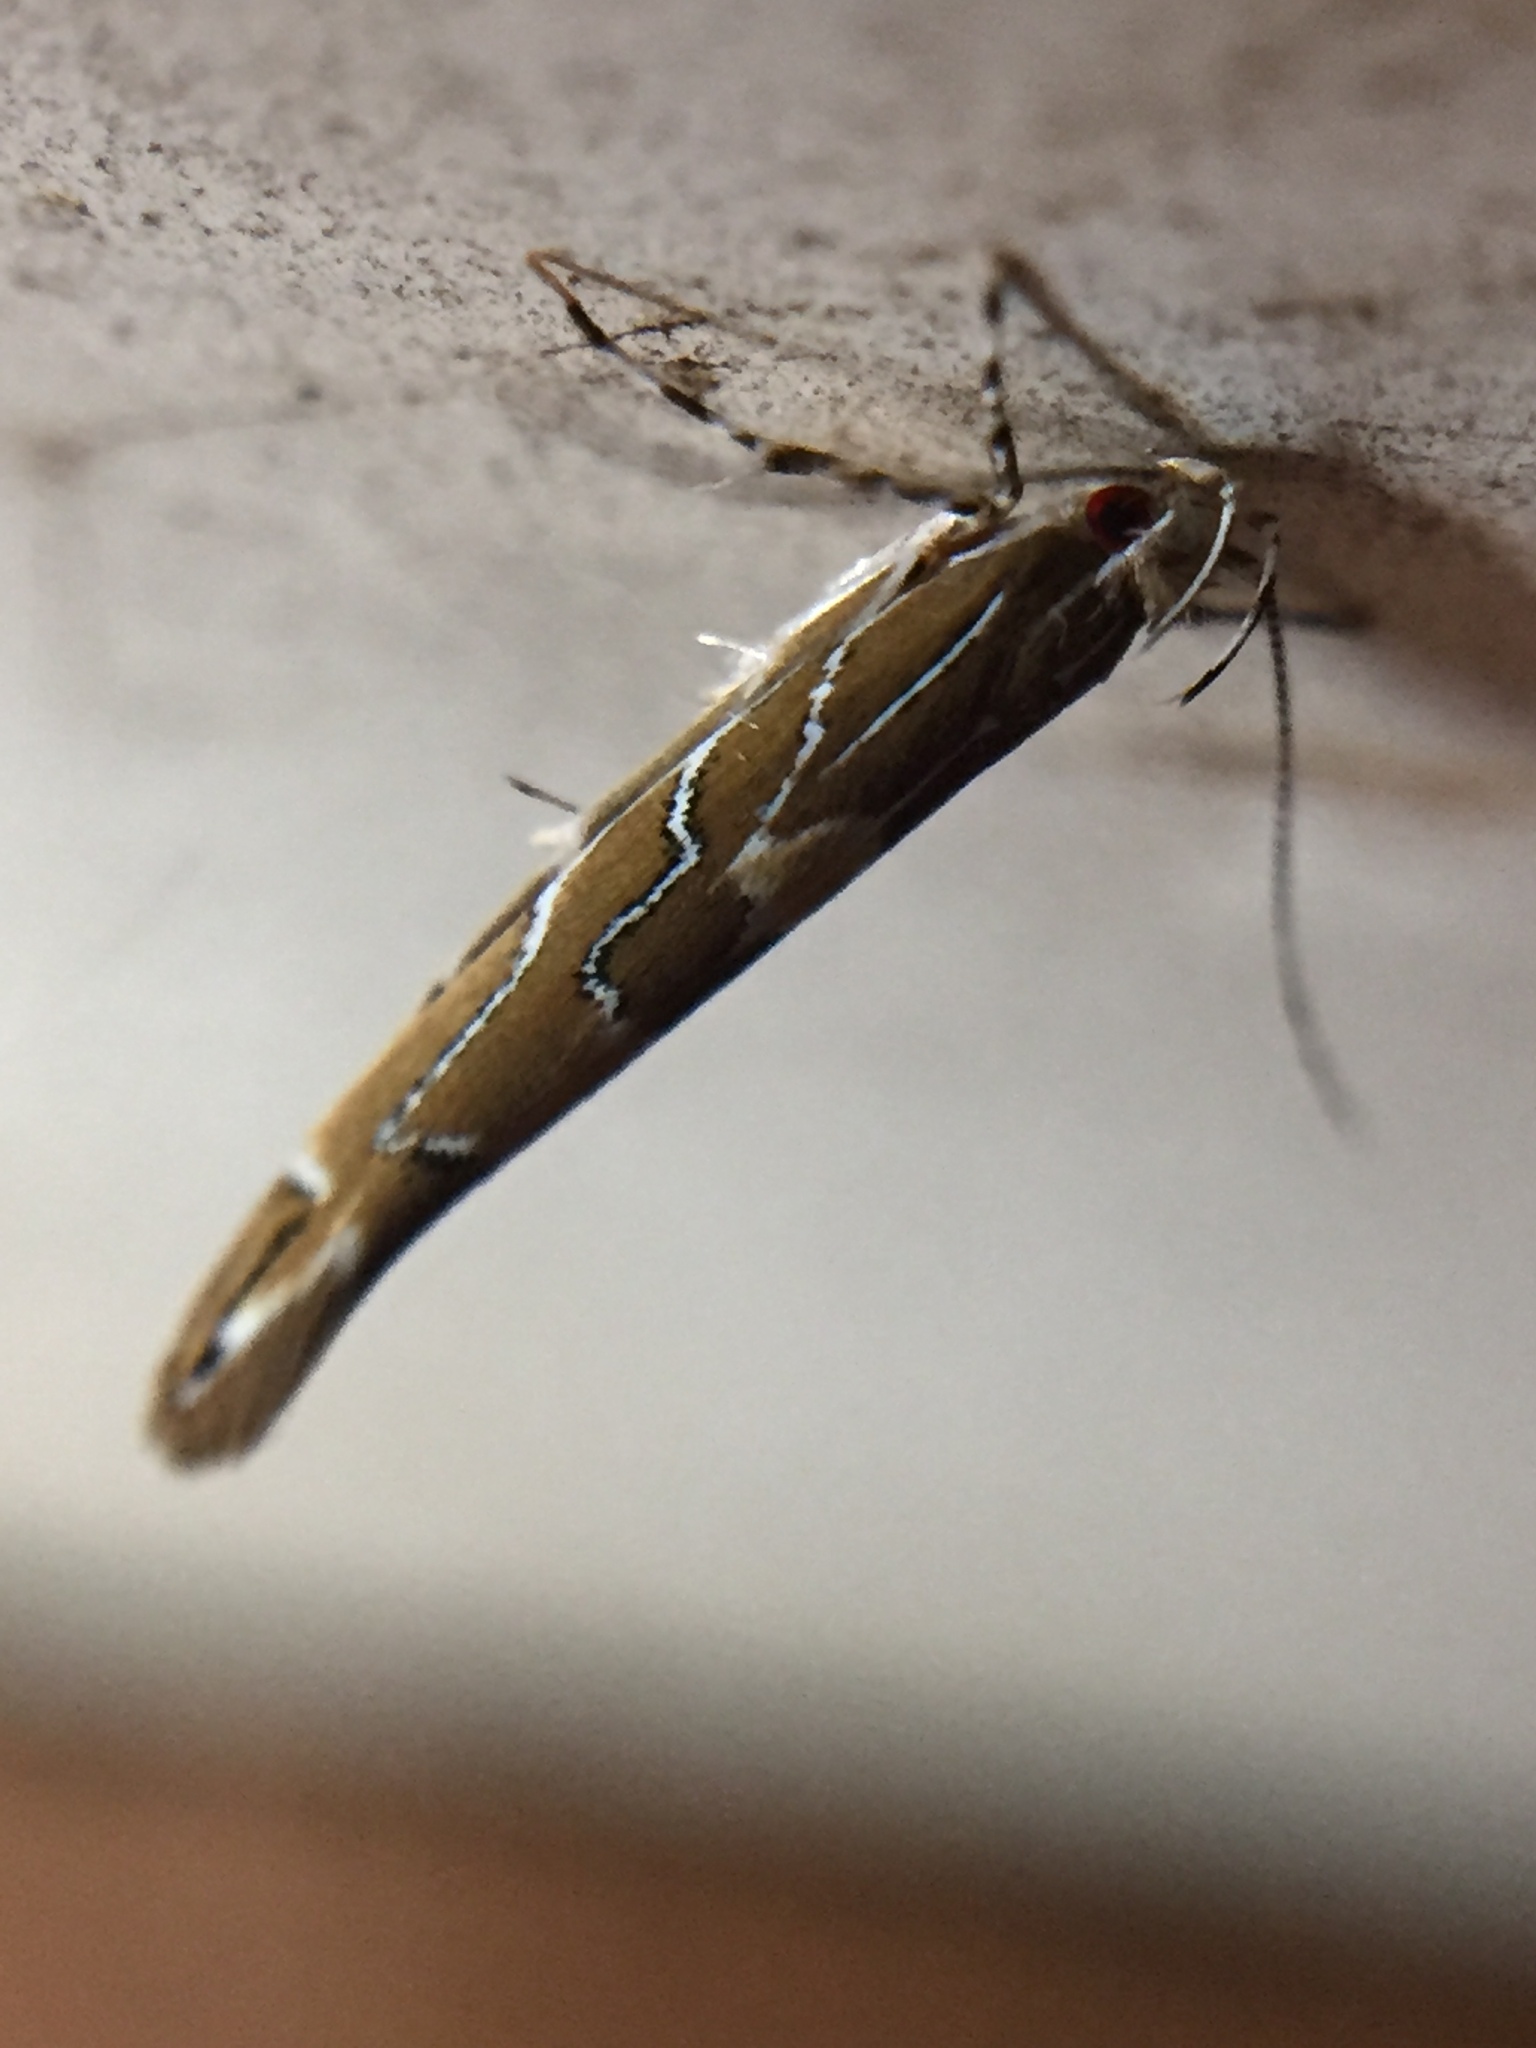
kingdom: Animalia
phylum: Arthropoda
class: Insecta
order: Lepidoptera
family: Cosmopterigidae
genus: Pyroderces
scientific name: Pyroderces apparitella
